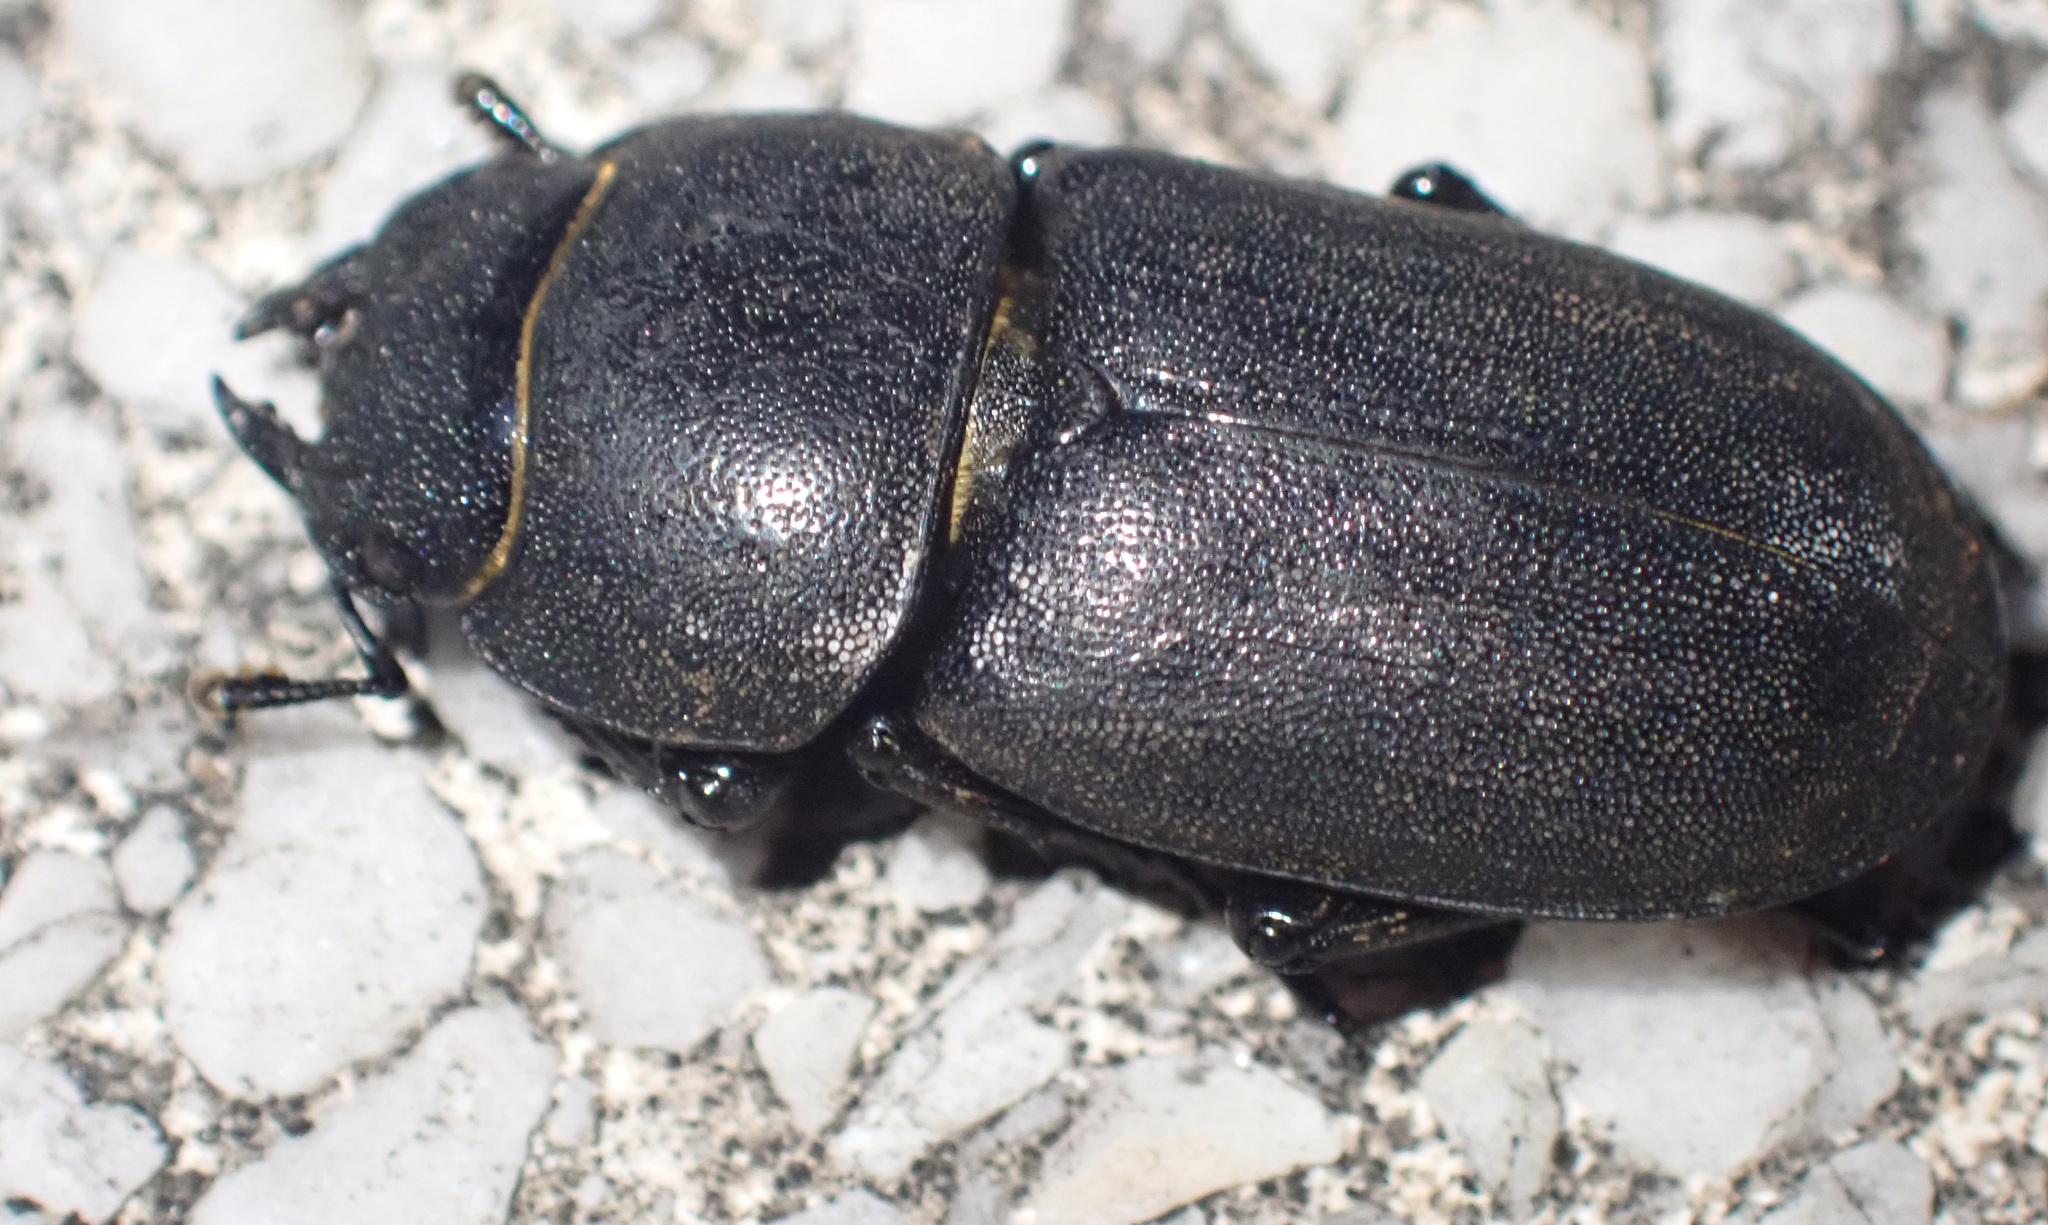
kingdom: Animalia
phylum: Arthropoda
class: Insecta
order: Coleoptera
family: Lucanidae
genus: Dorcus
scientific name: Dorcus parallelipipedus
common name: Lesser stag beetle
